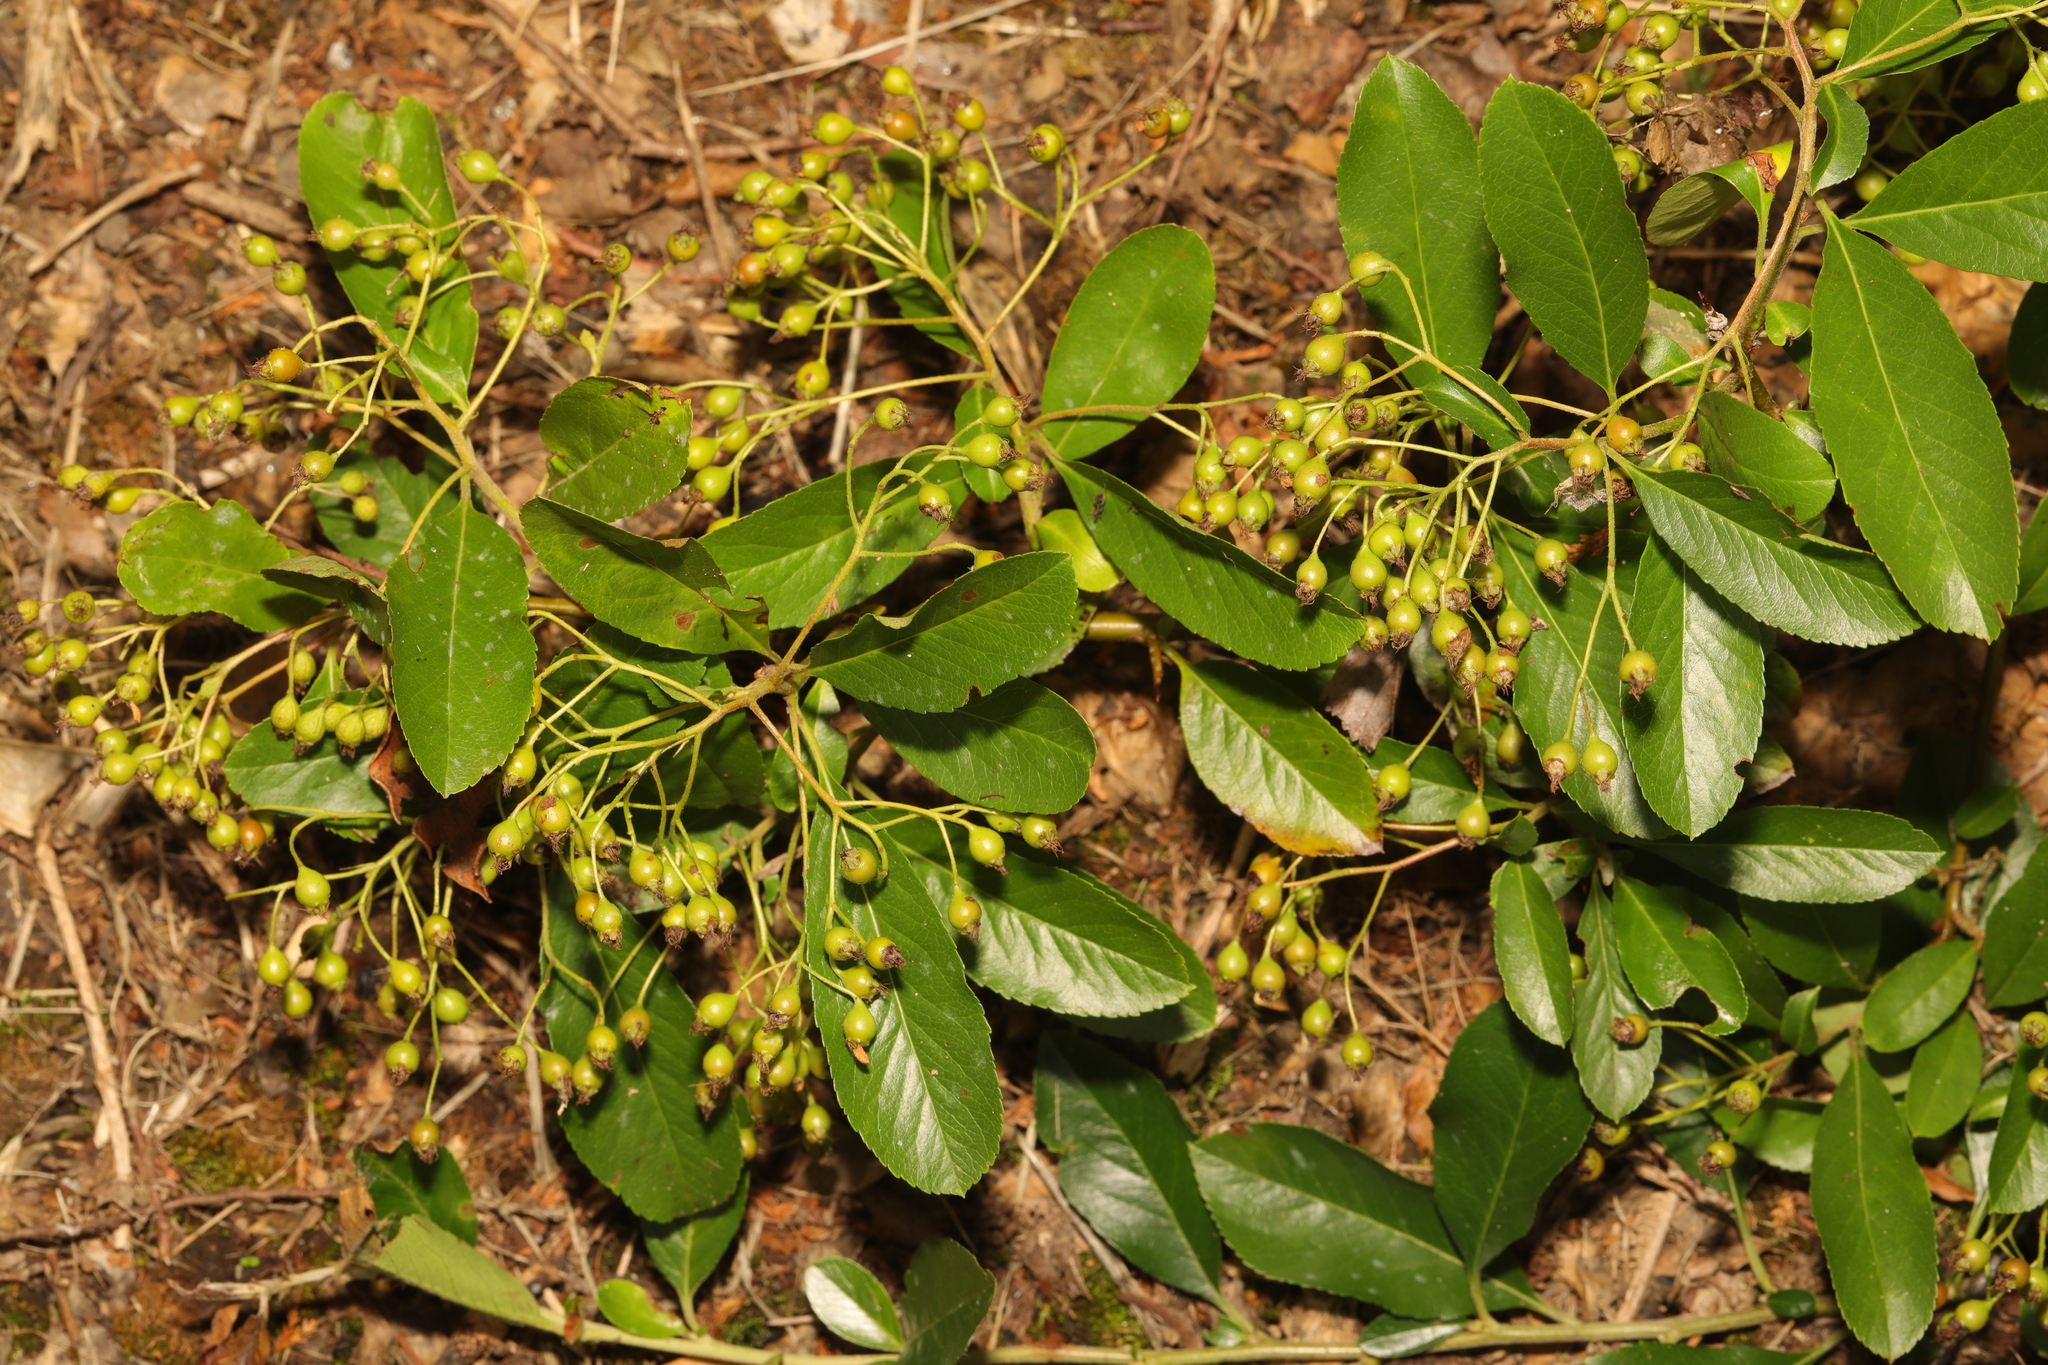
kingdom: Plantae
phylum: Tracheophyta
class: Magnoliopsida
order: Rosales
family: Rosaceae
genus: Pyracantha
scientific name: Pyracantha coccinea
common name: Firethorn
